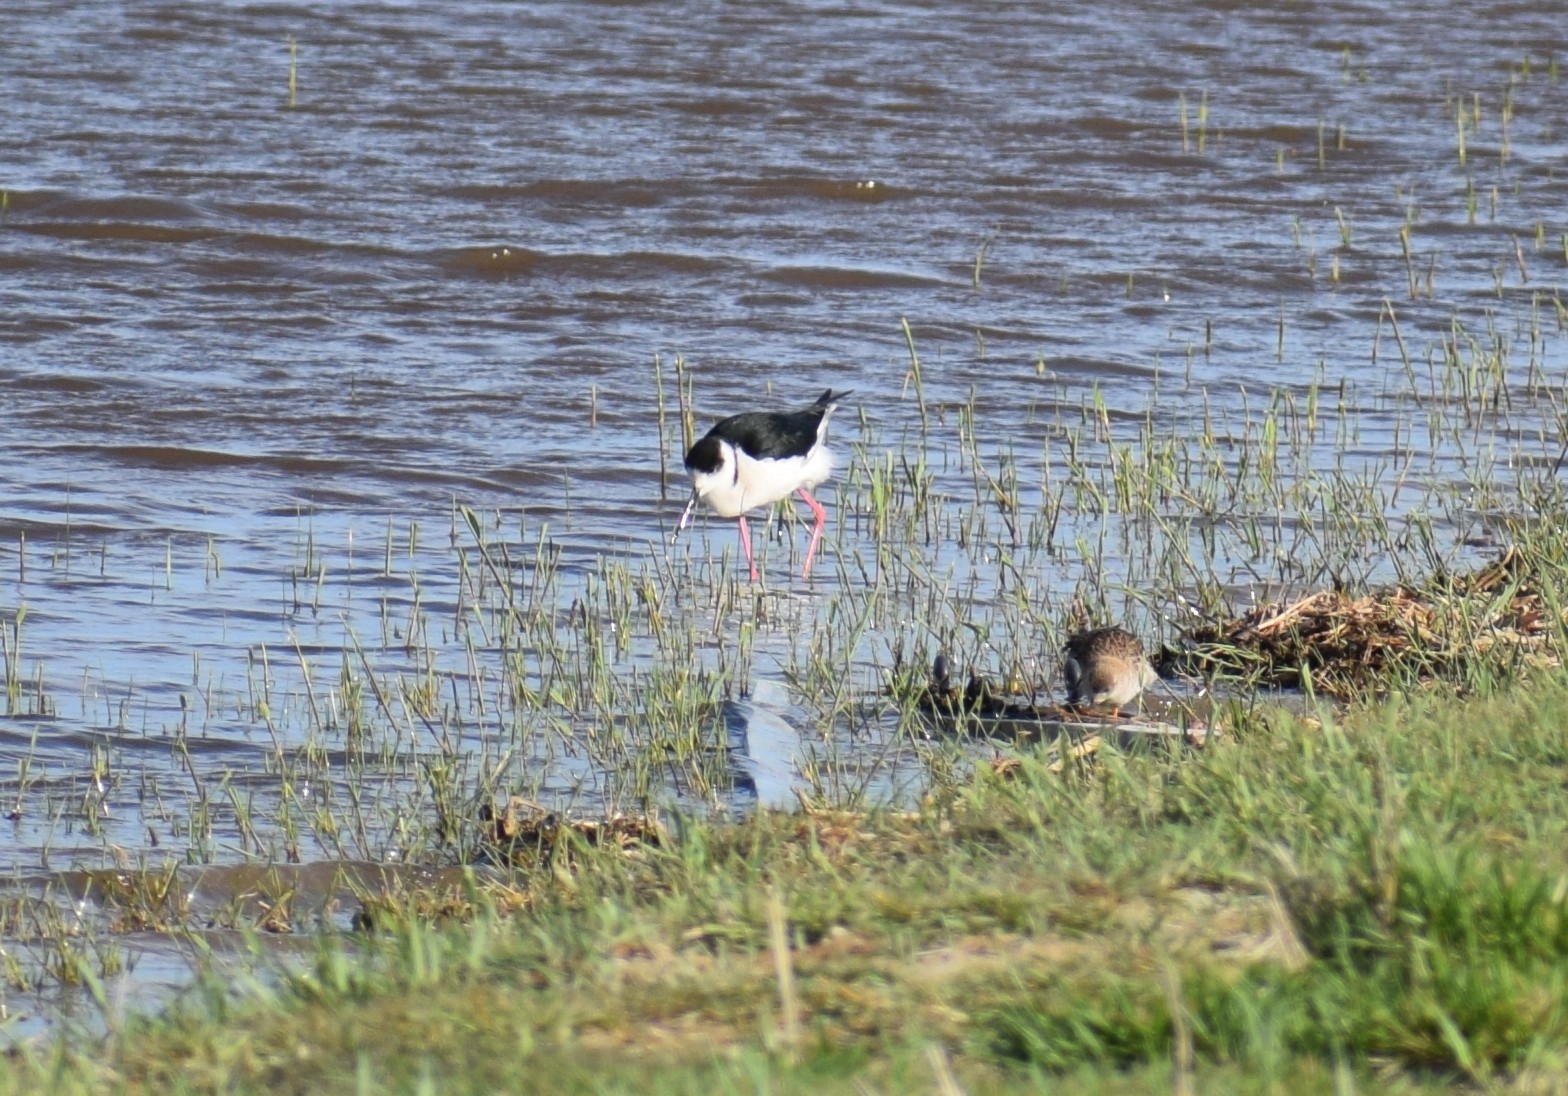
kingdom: Animalia
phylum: Chordata
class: Aves
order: Charadriiformes
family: Recurvirostridae
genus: Himantopus
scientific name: Himantopus himantopus
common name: Black-winged stilt
